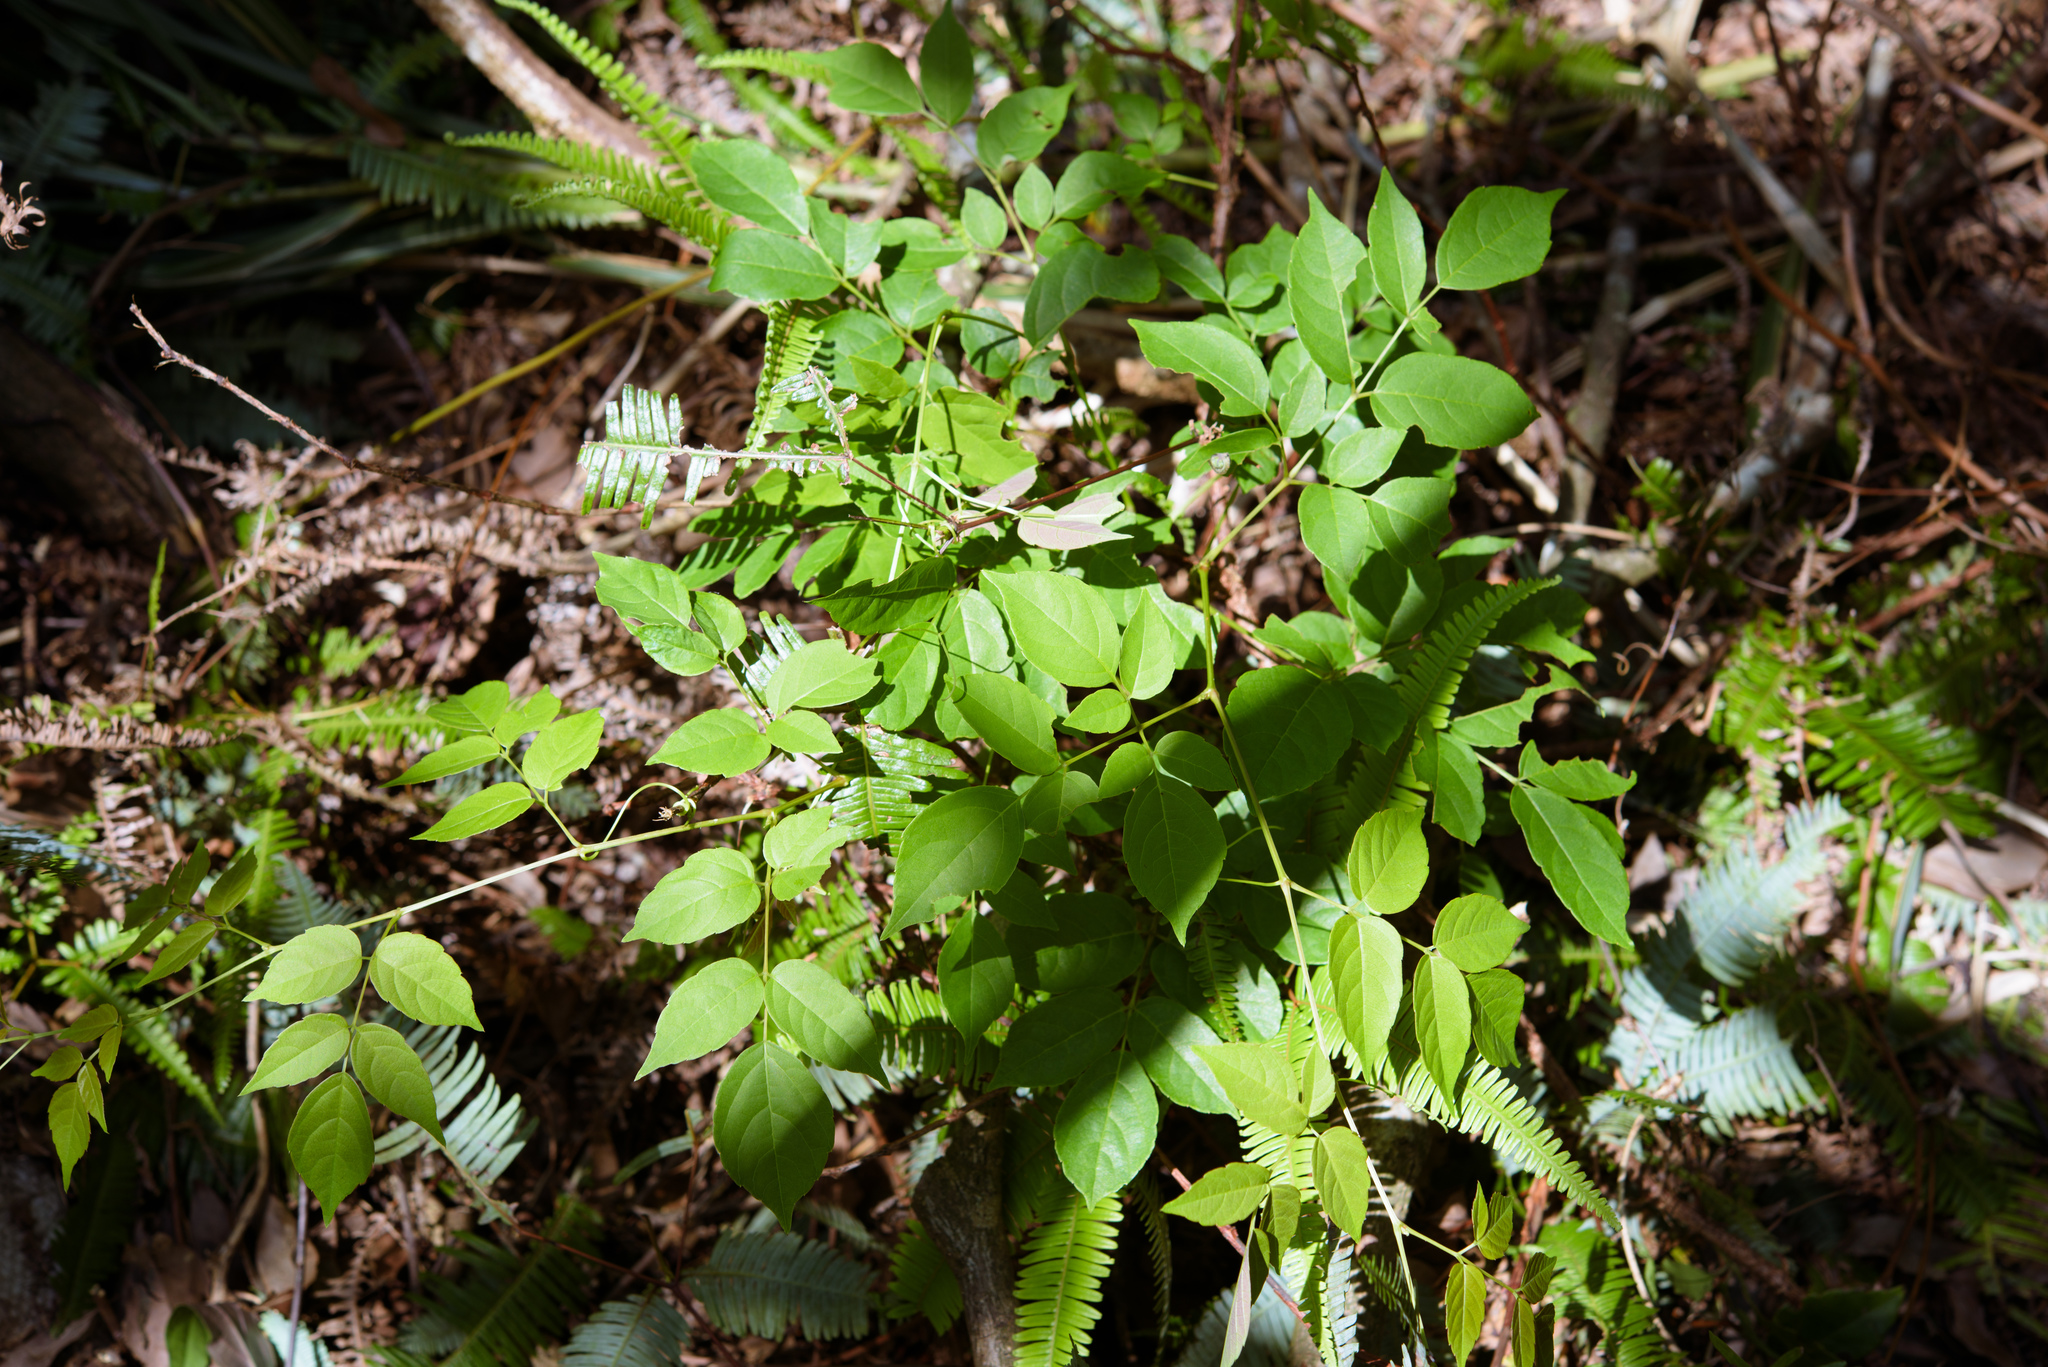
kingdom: Plantae
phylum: Tracheophyta
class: Magnoliopsida
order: Vitales
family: Vitaceae
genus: Nekemias
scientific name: Nekemias cantoniensis
